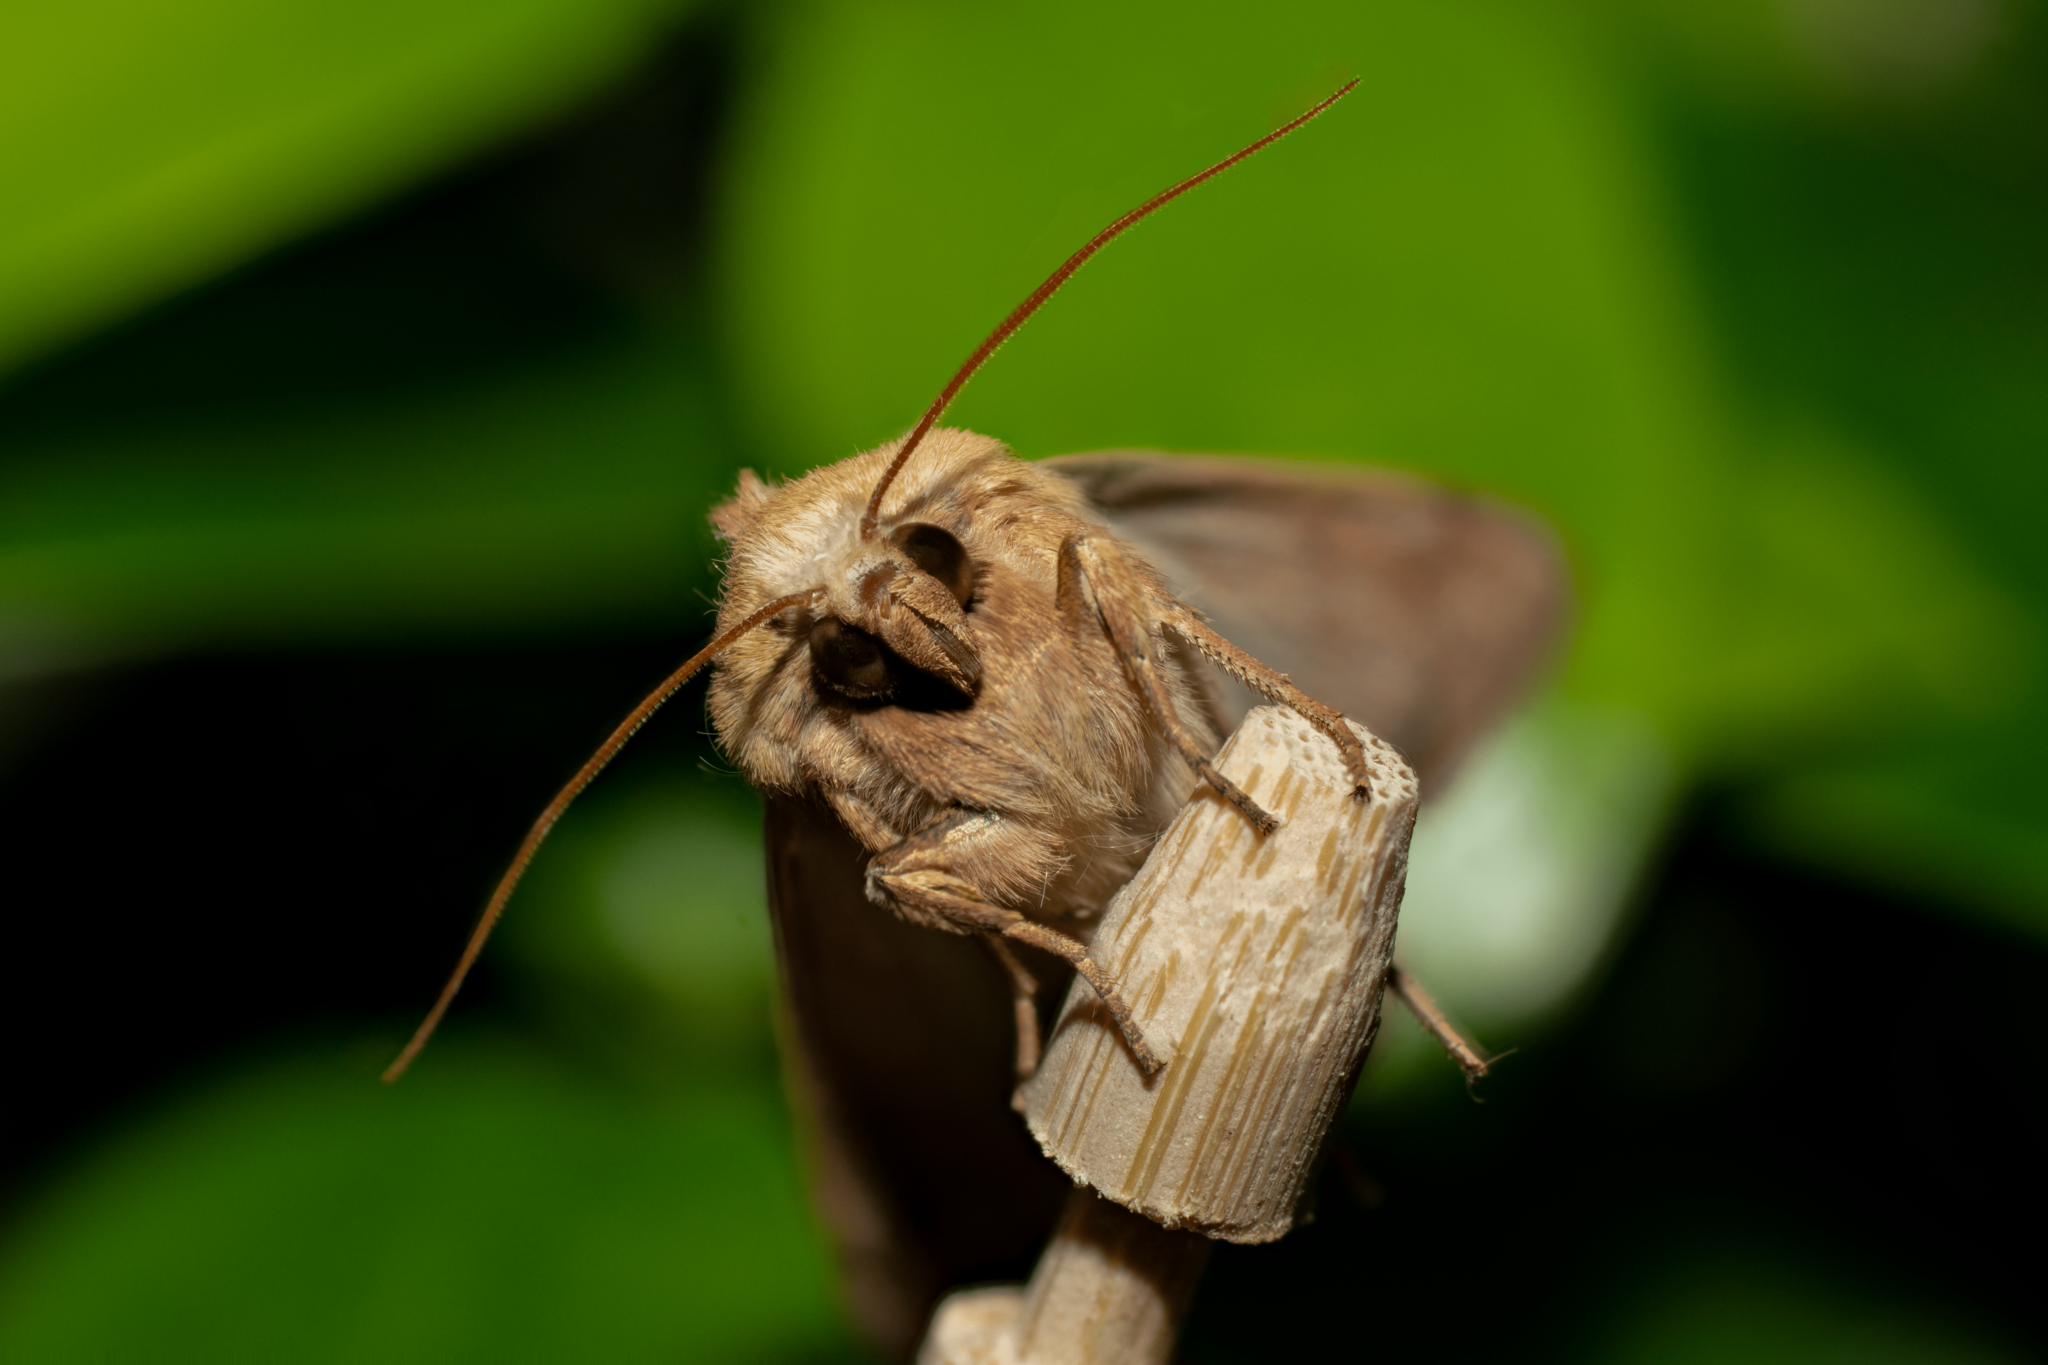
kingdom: Animalia
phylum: Arthropoda
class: Insecta
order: Lepidoptera
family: Noctuidae
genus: Mythimna
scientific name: Mythimna vitellina
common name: Delicate
